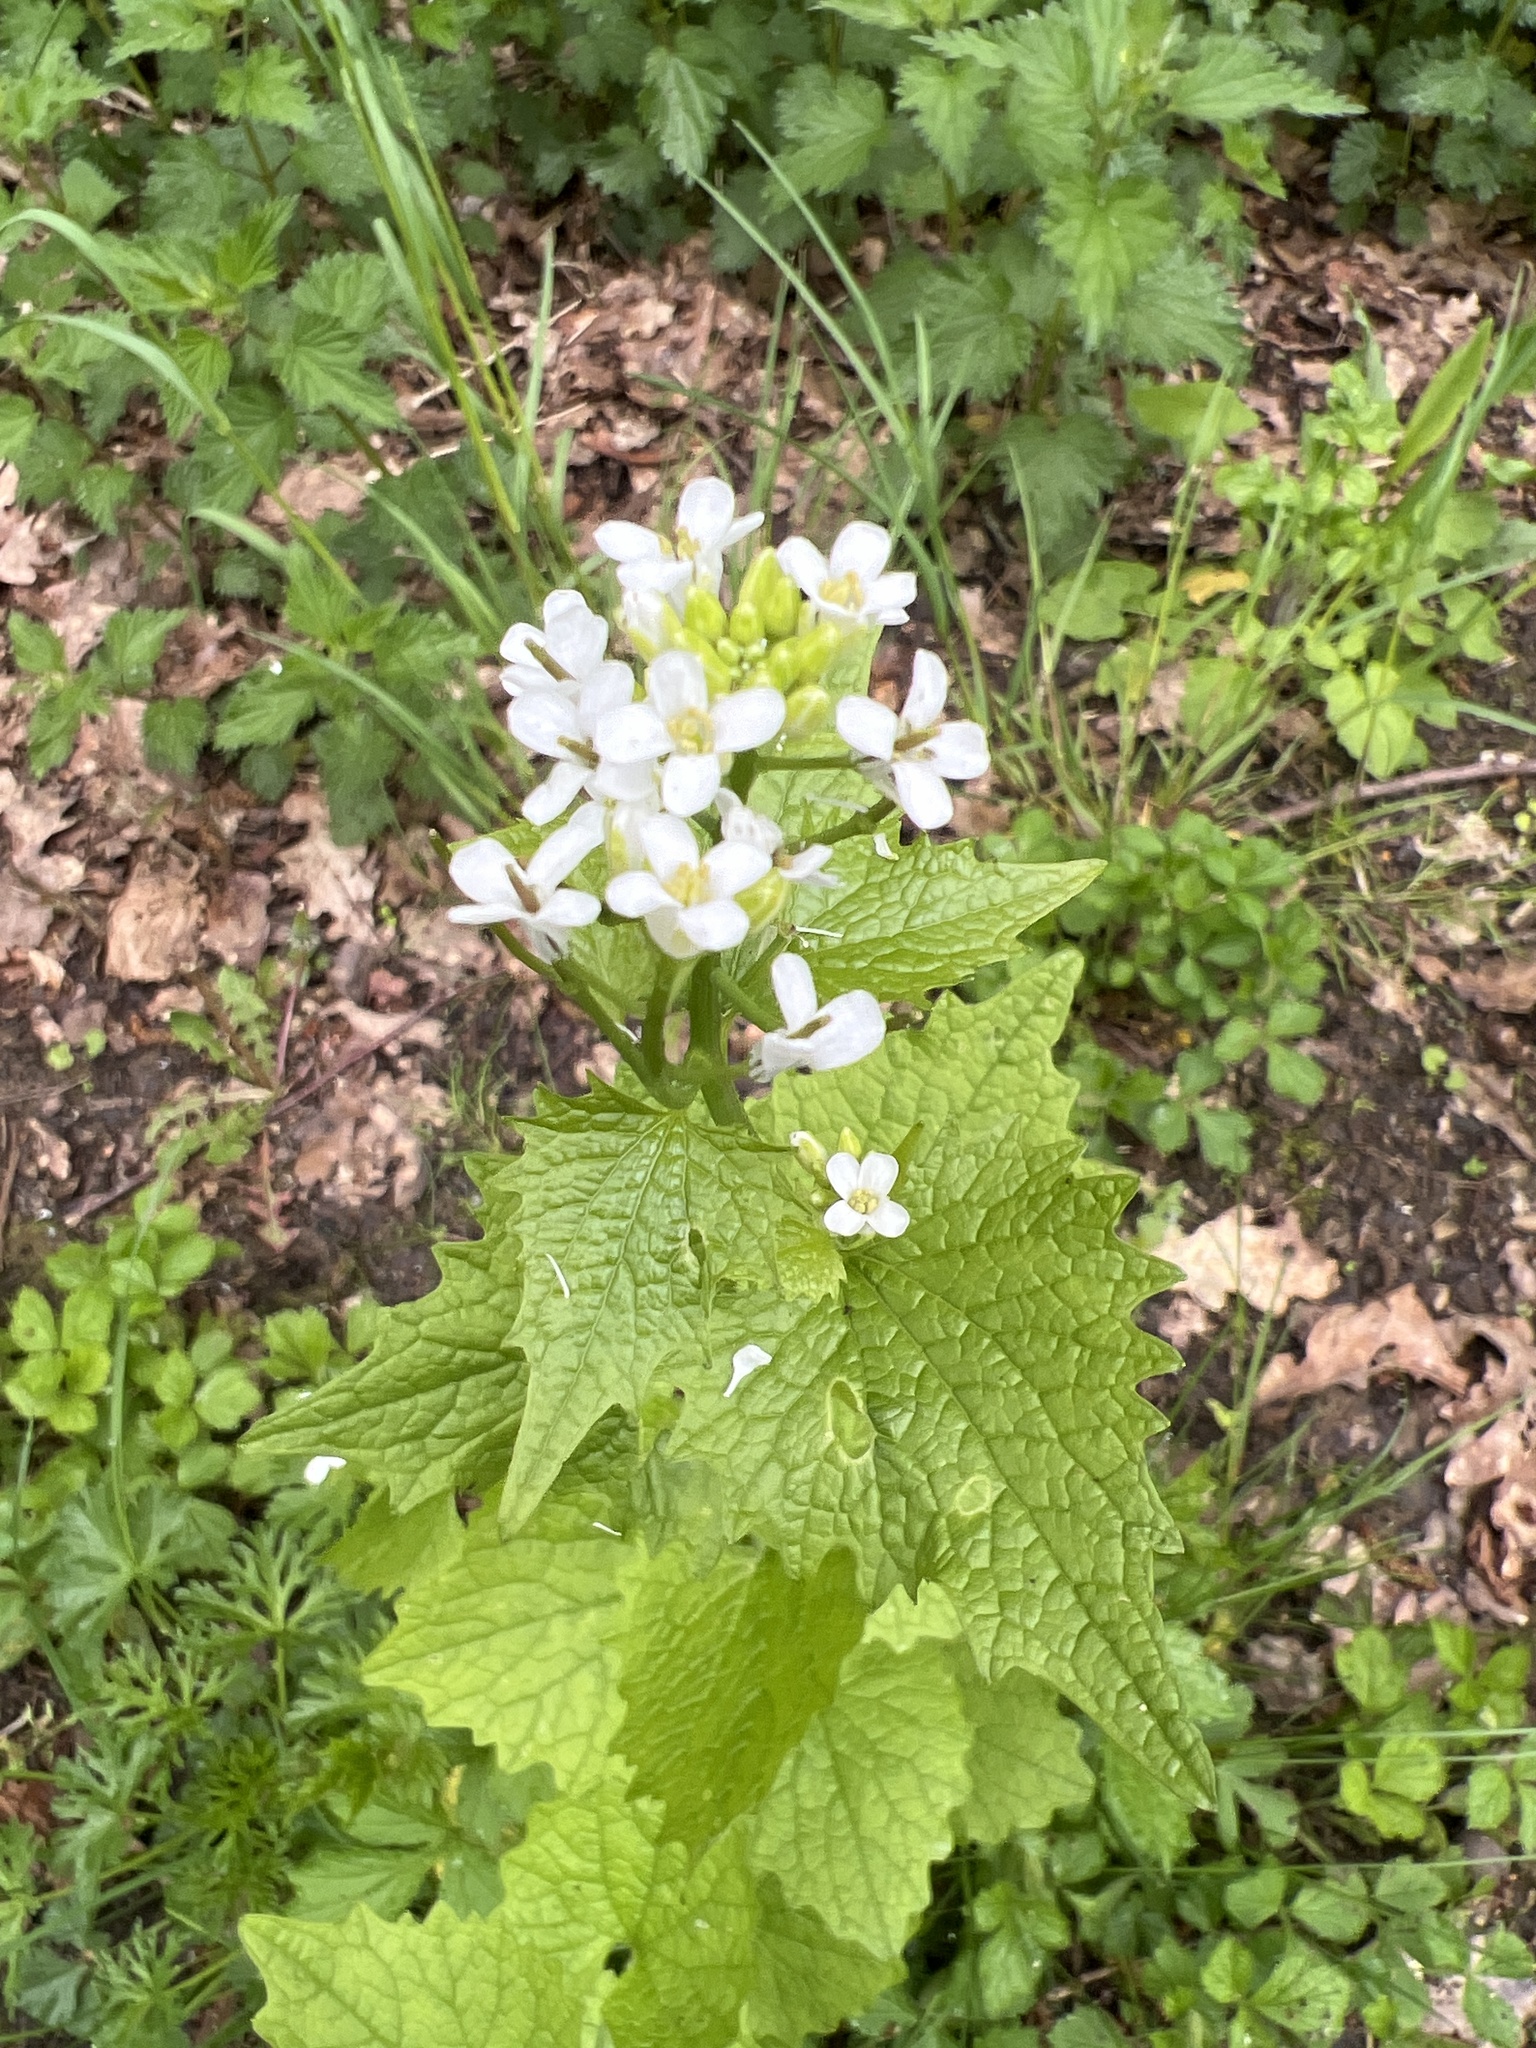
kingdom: Plantae
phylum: Tracheophyta
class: Magnoliopsida
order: Brassicales
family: Brassicaceae
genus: Alliaria
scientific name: Alliaria petiolata
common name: Garlic mustard
